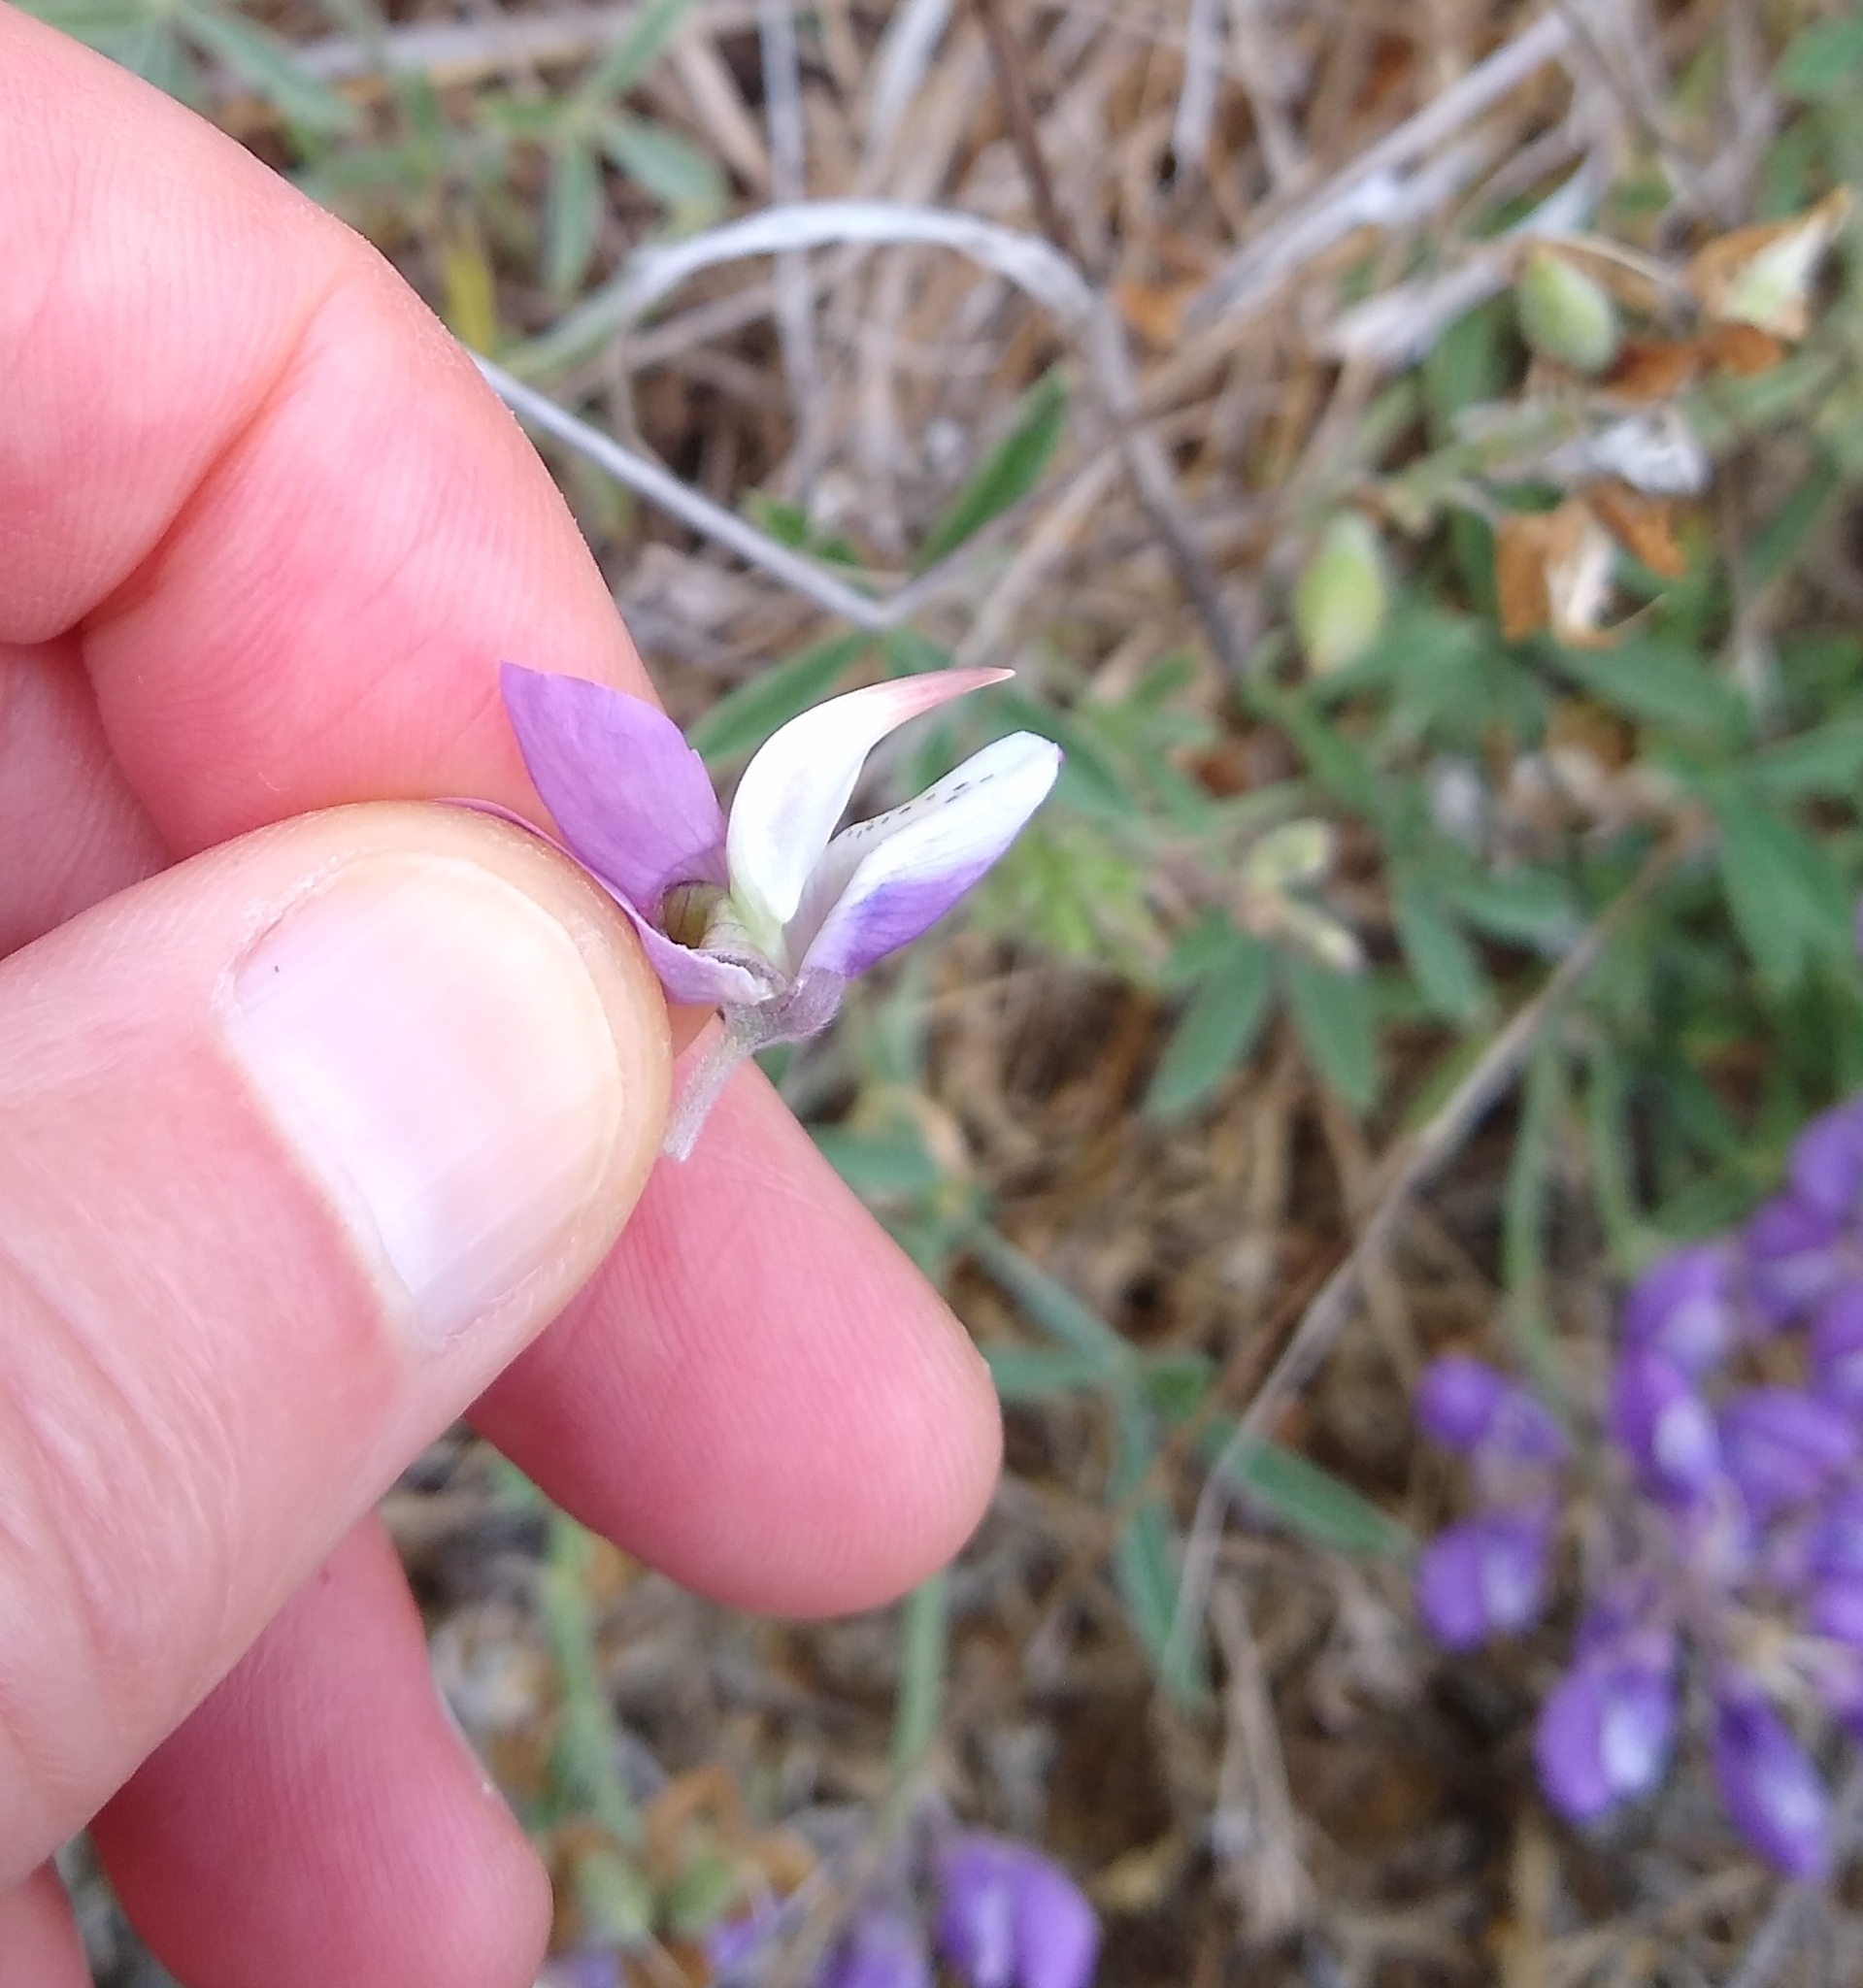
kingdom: Plantae
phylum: Tracheophyta
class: Magnoliopsida
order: Fabales
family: Fabaceae
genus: Lupinus
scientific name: Lupinus formosus
